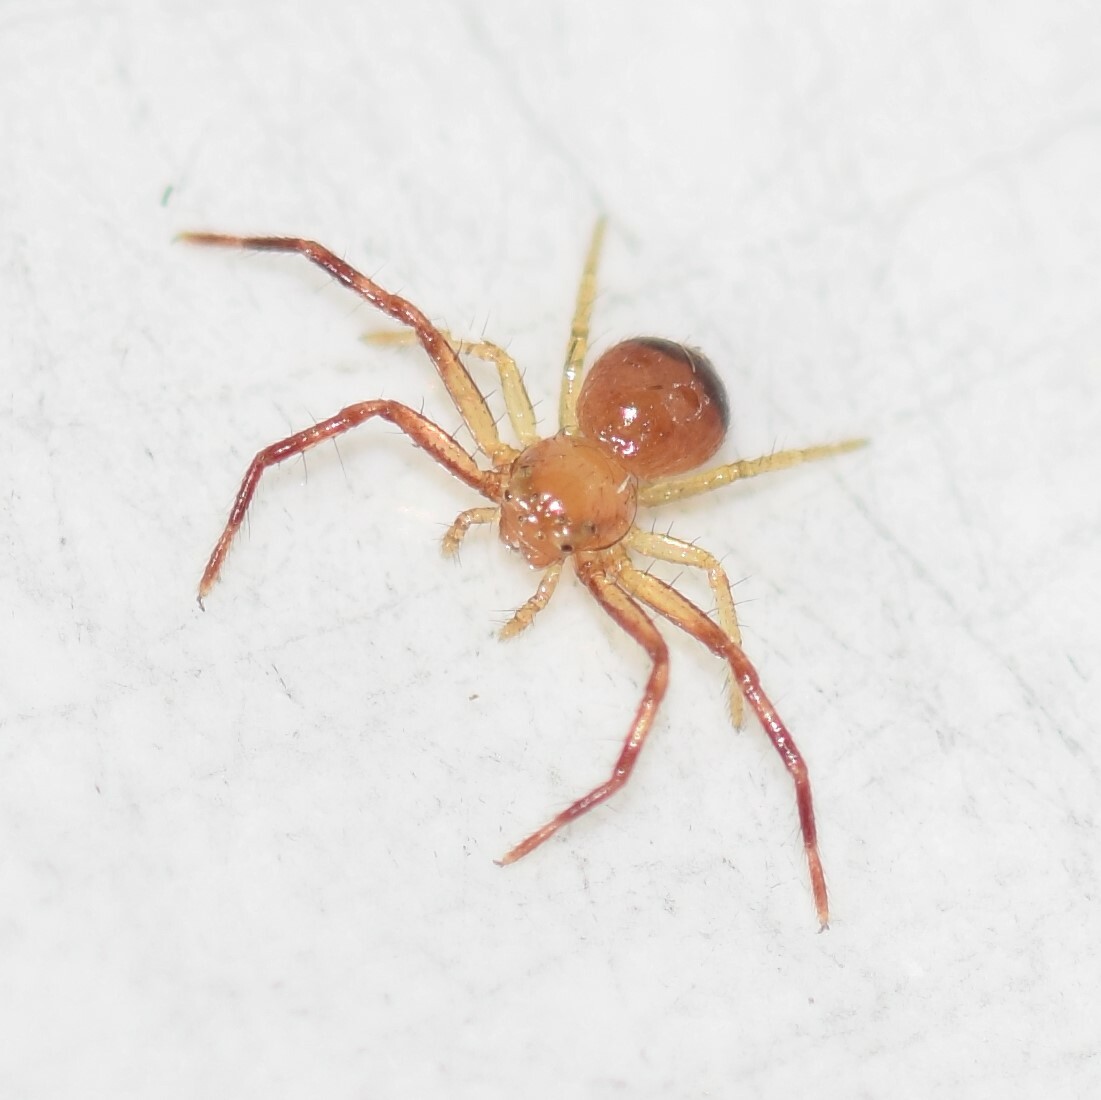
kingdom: Animalia
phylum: Arthropoda
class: Arachnida
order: Araneae
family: Thomisidae
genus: Synema
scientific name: Synema parvulum
